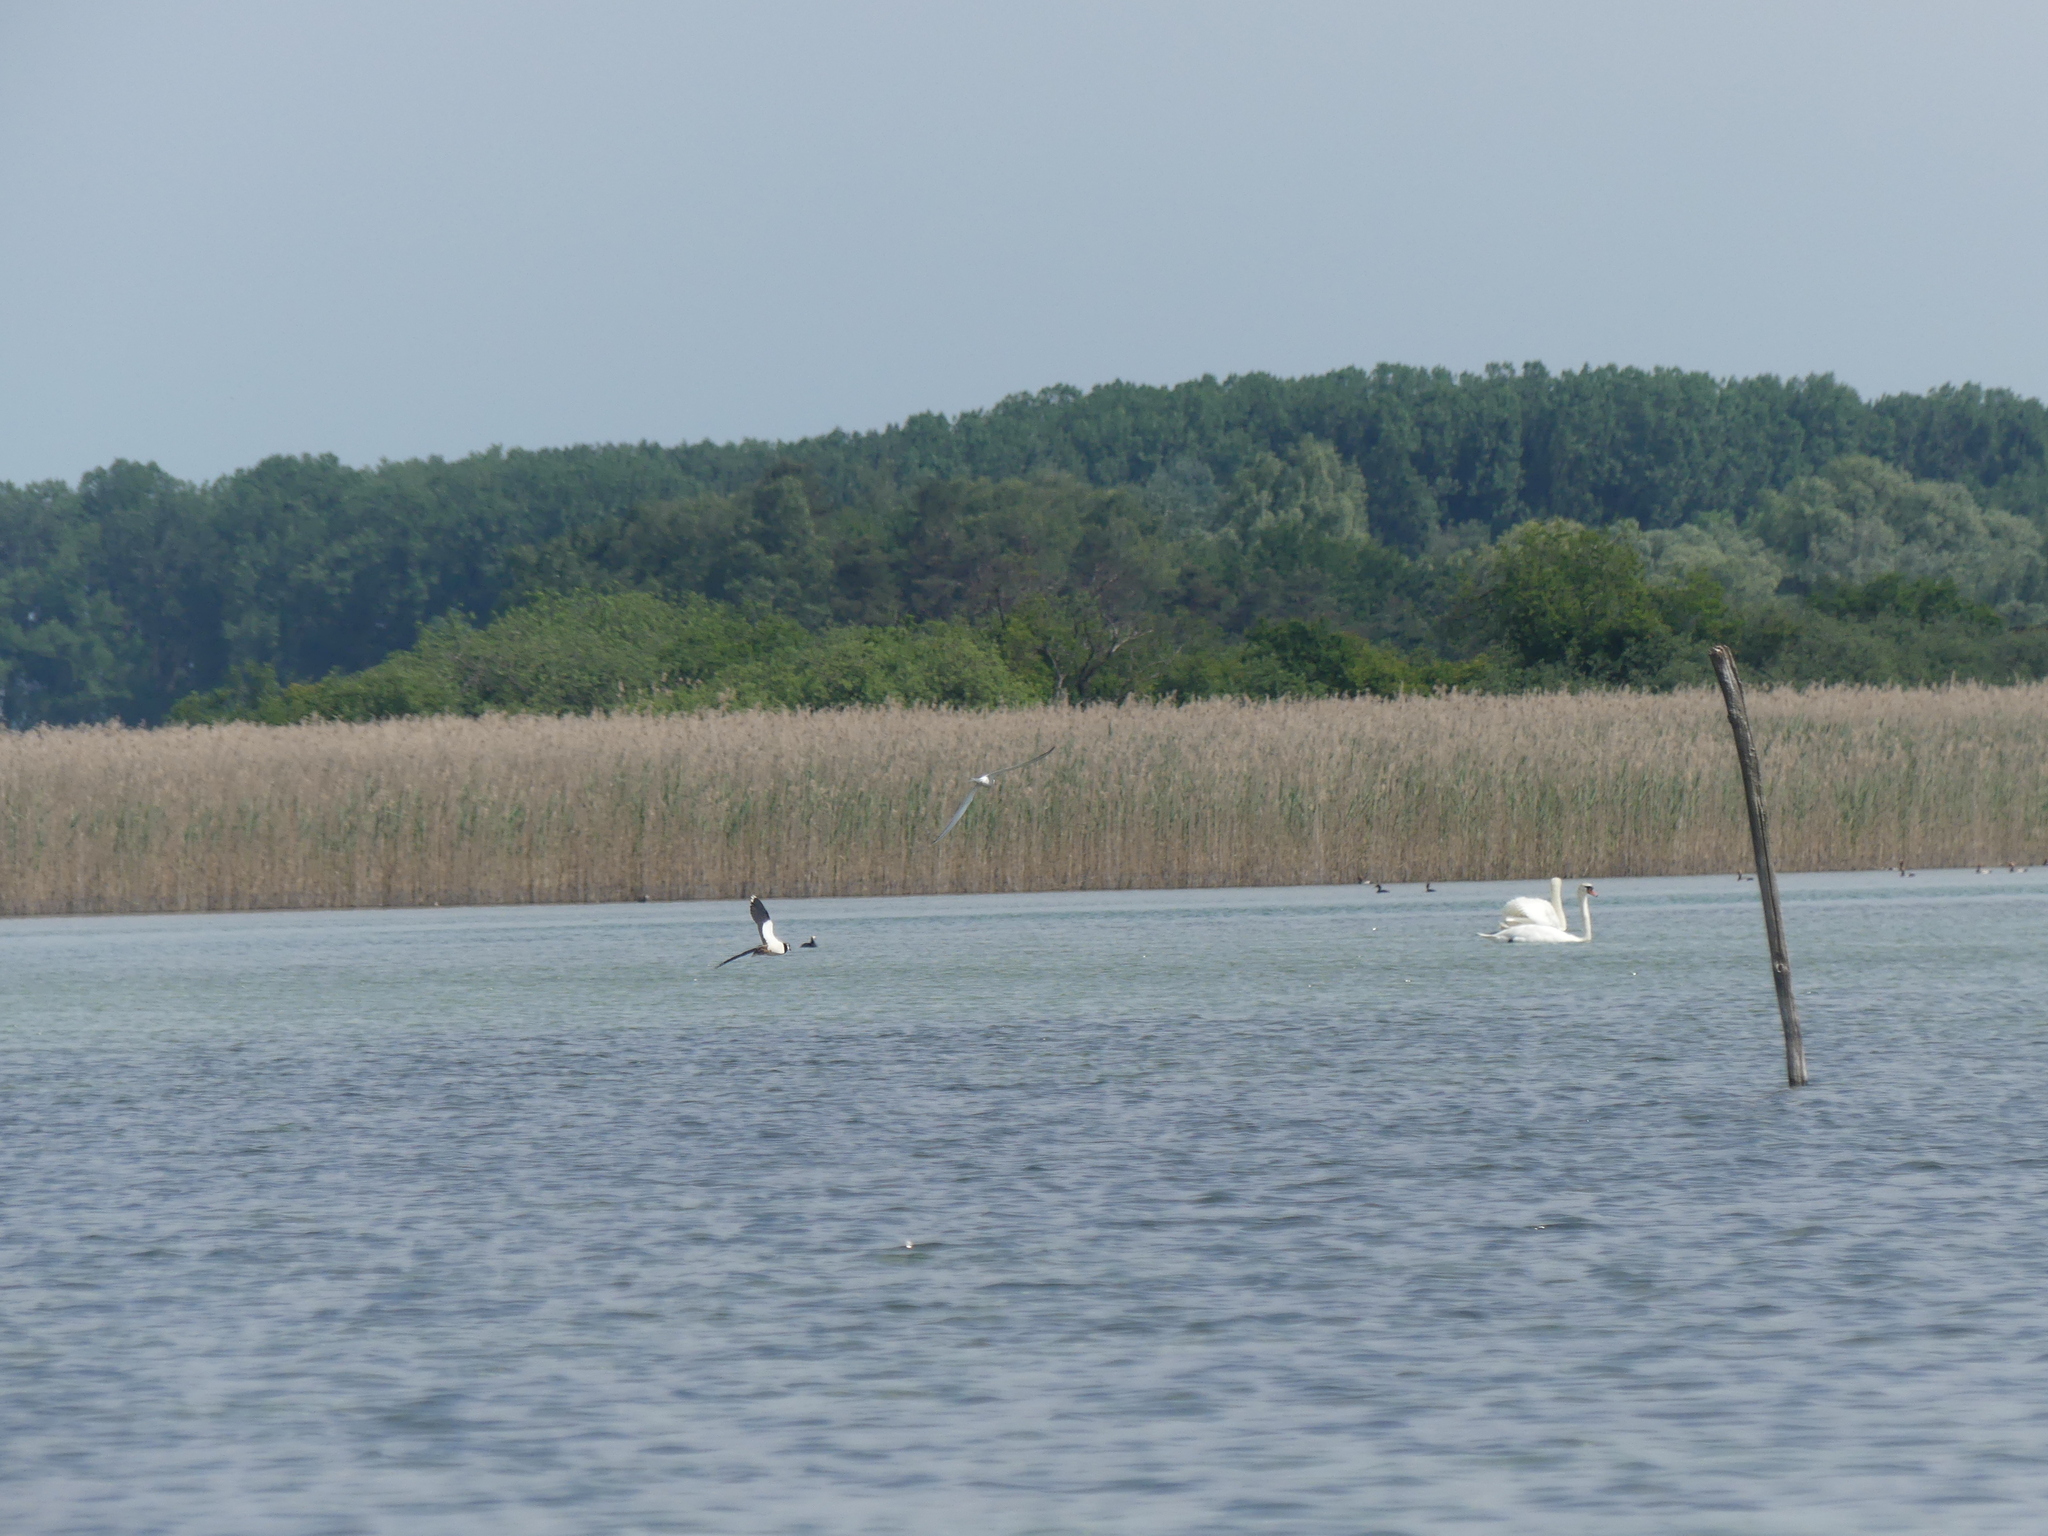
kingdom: Animalia
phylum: Chordata
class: Aves
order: Charadriiformes
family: Charadriidae
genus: Vanellus
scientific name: Vanellus vanellus
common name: Northern lapwing
